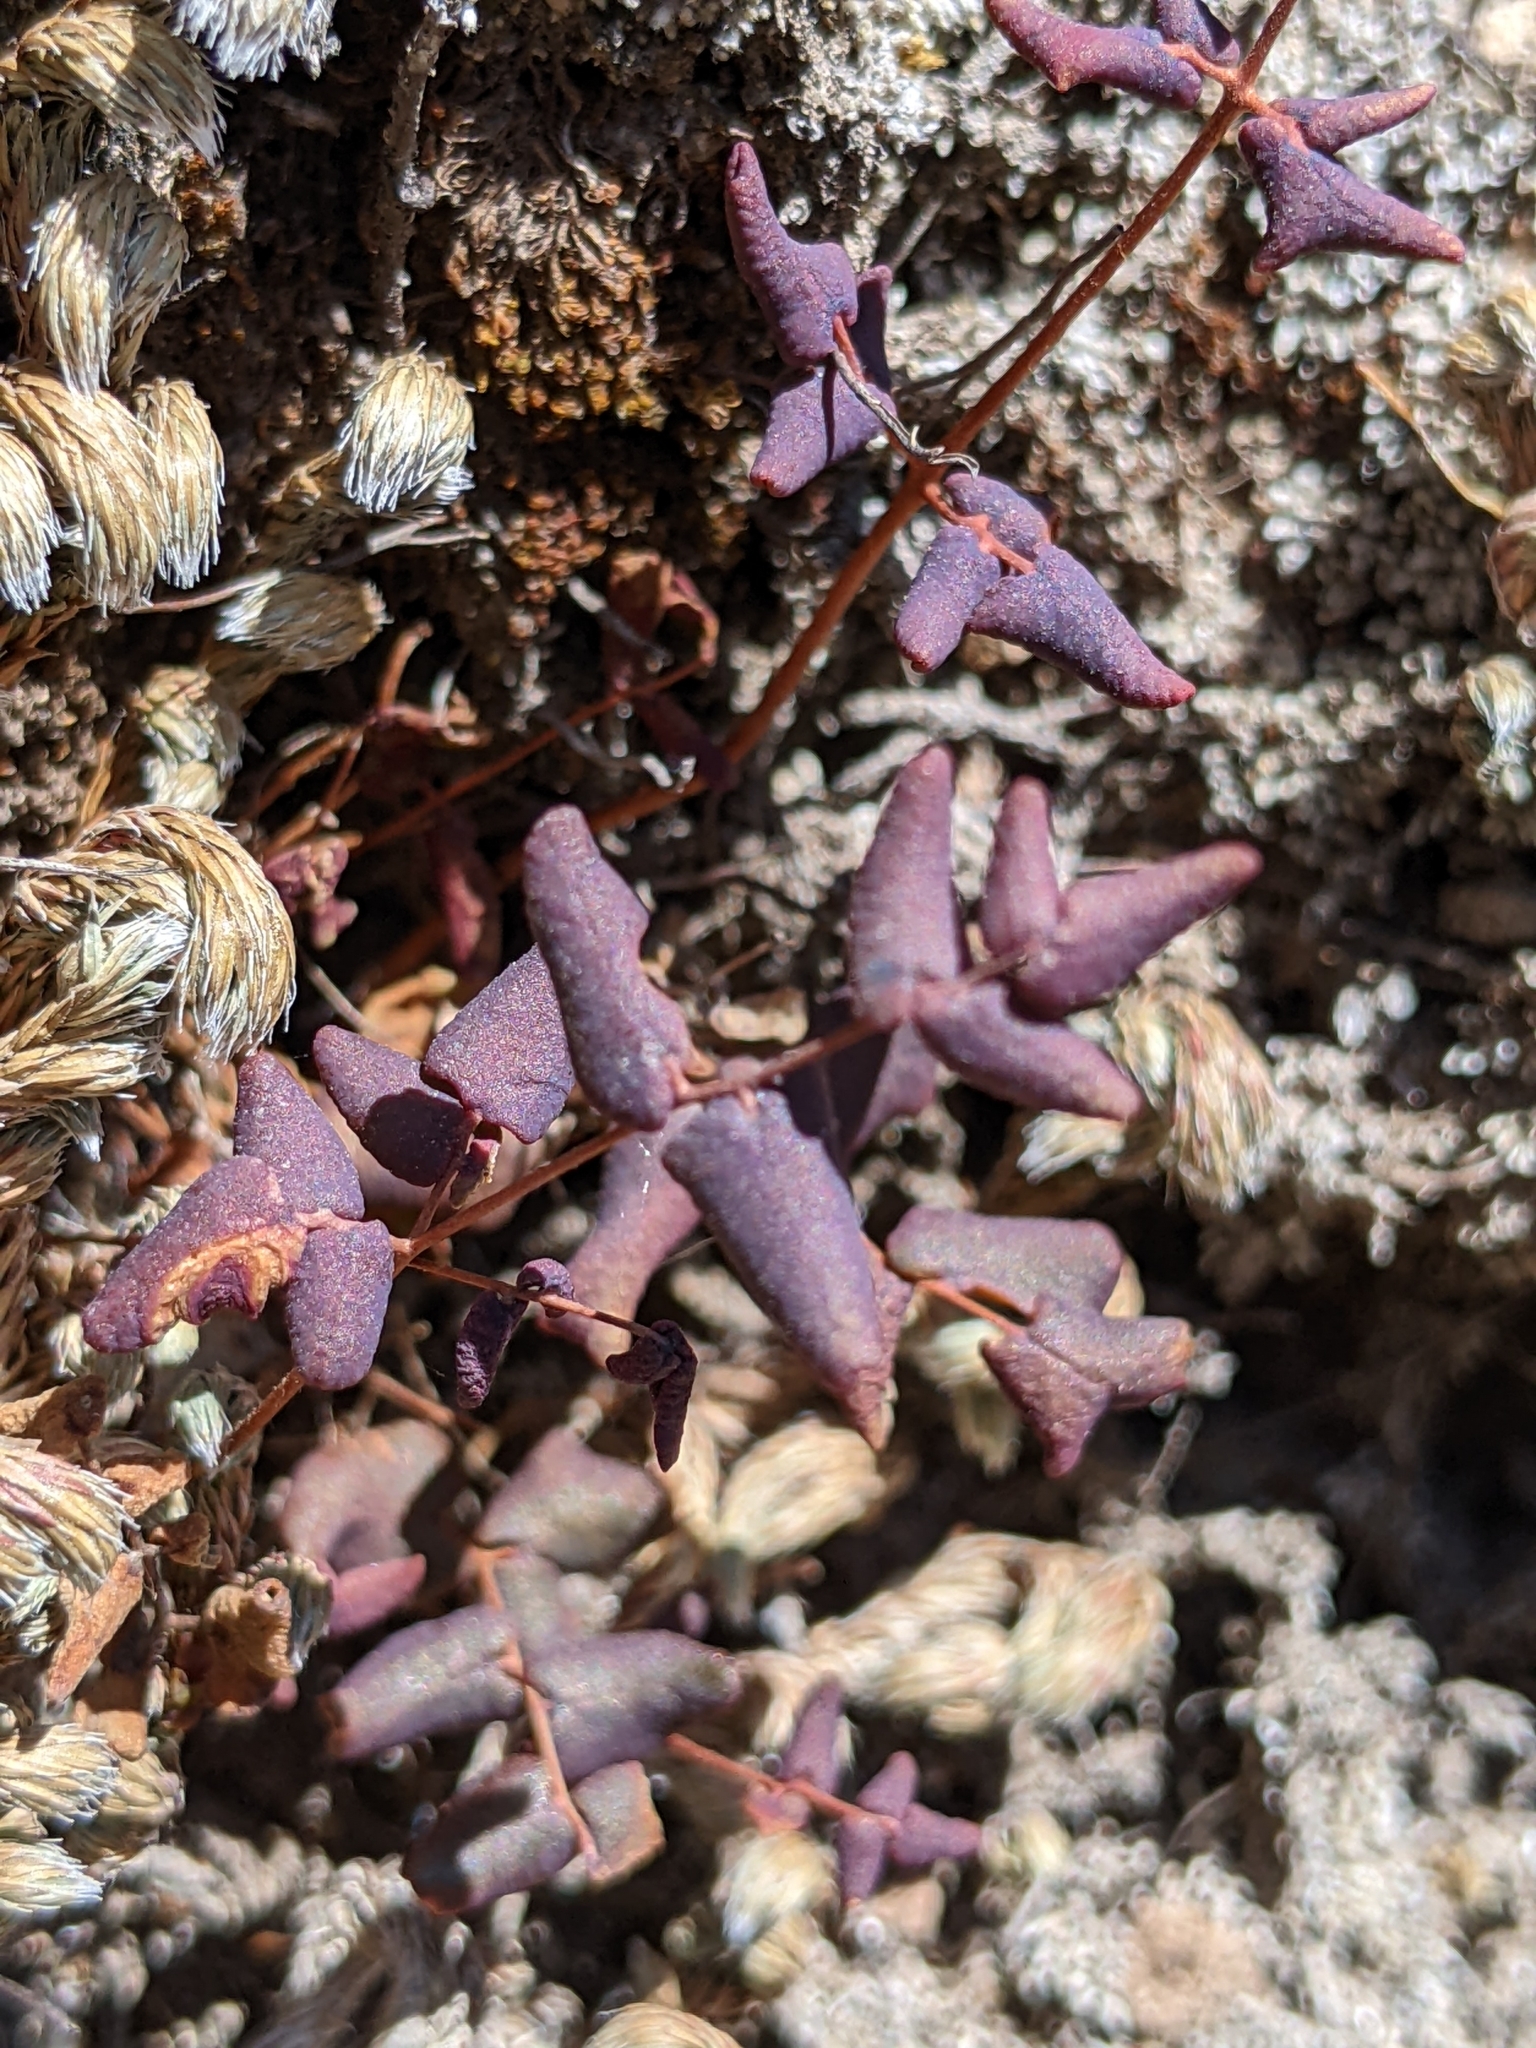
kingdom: Plantae
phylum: Tracheophyta
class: Polypodiopsida
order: Polypodiales
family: Pteridaceae
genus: Pellaea
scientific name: Pellaea andromedifolia
